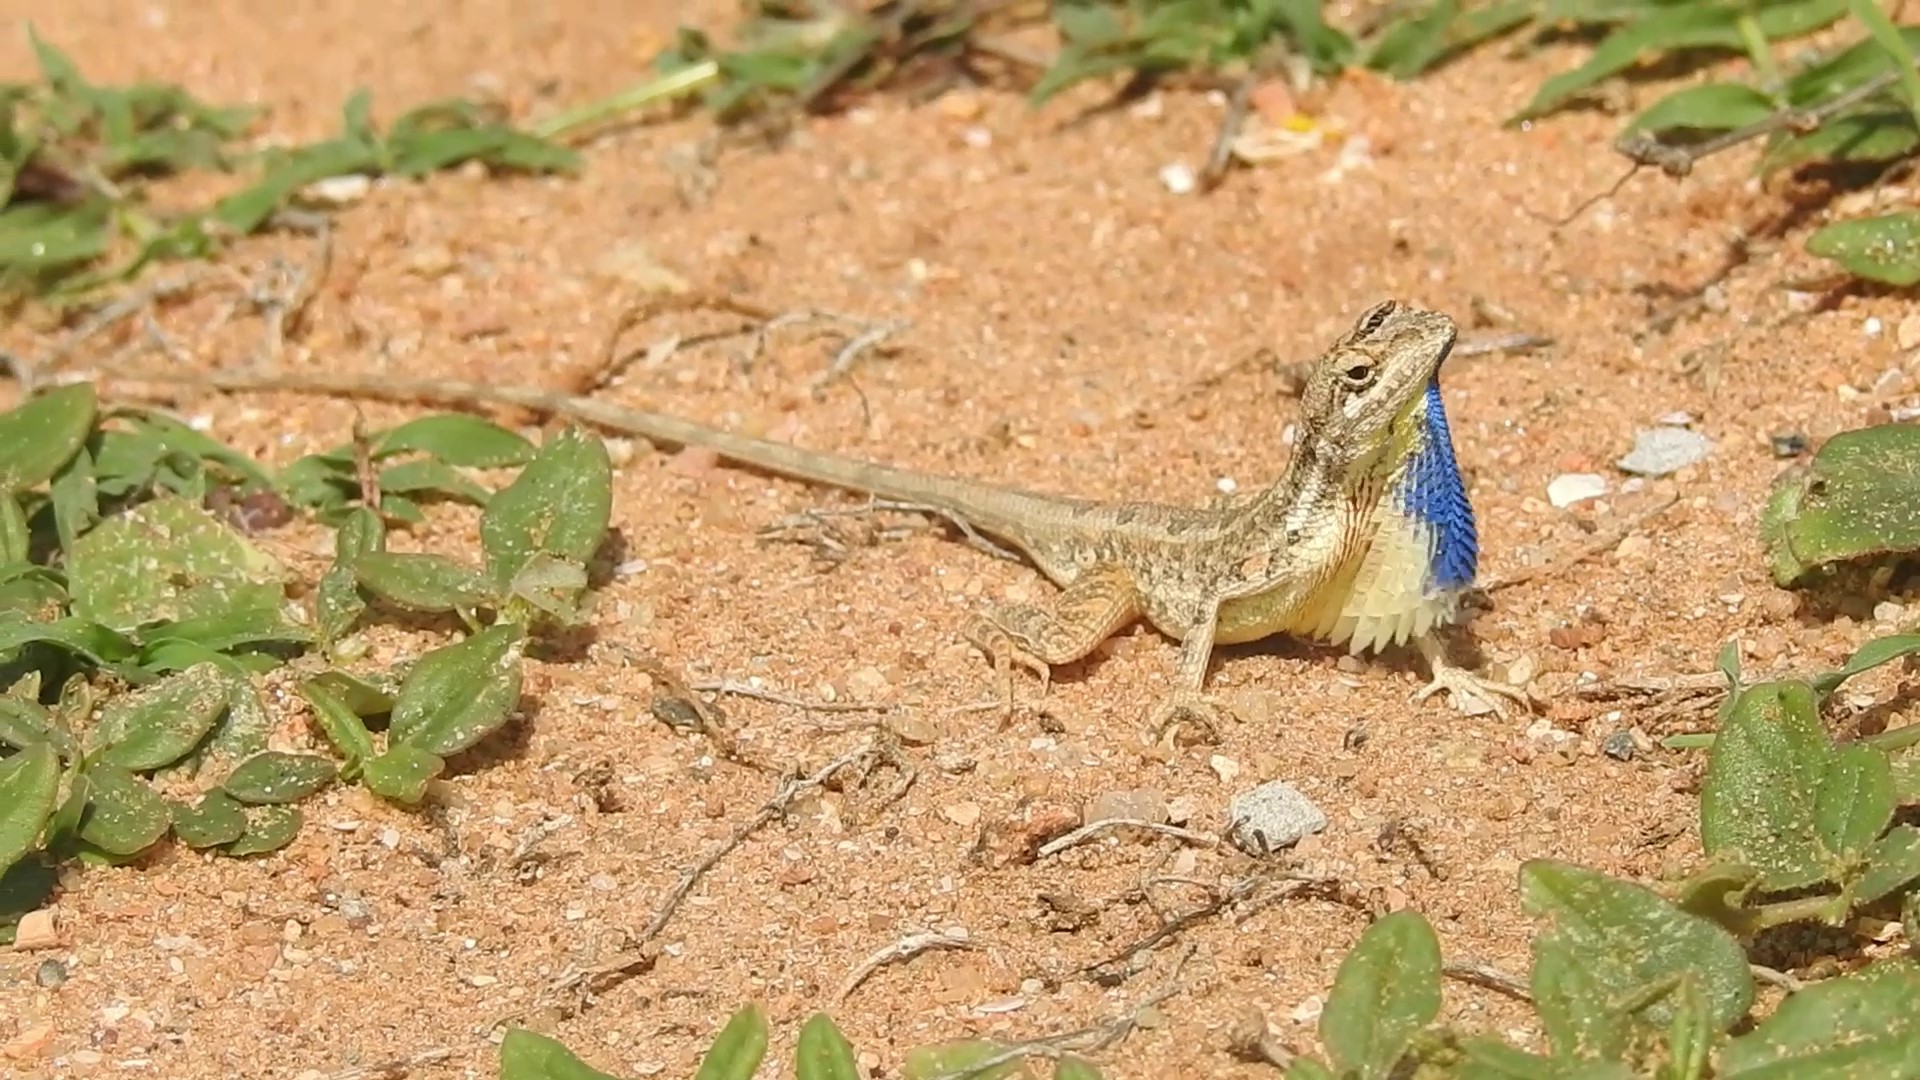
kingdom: Animalia
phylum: Chordata
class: Squamata
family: Agamidae
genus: Sitana
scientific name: Sitana marudhamneydhal
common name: Attenborough’s fan-throated lizard
